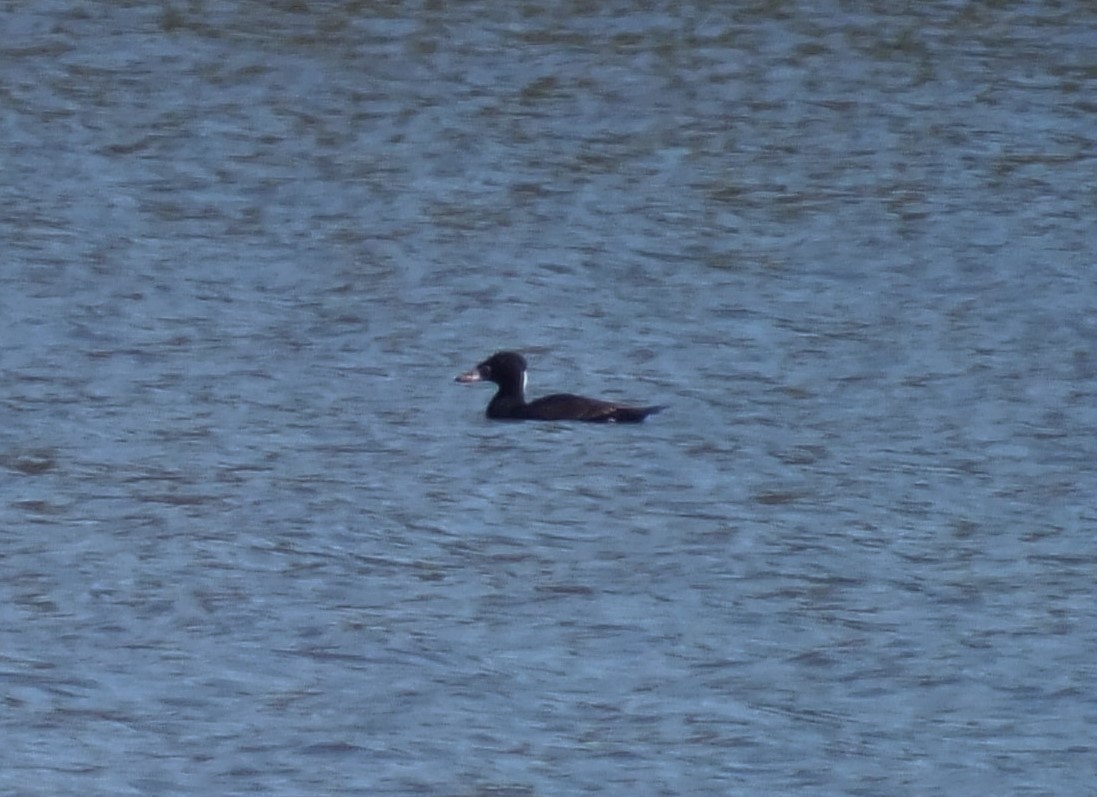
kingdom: Animalia
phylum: Chordata
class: Aves
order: Anseriformes
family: Anatidae
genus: Melanitta
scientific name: Melanitta perspicillata
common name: Surf scoter
